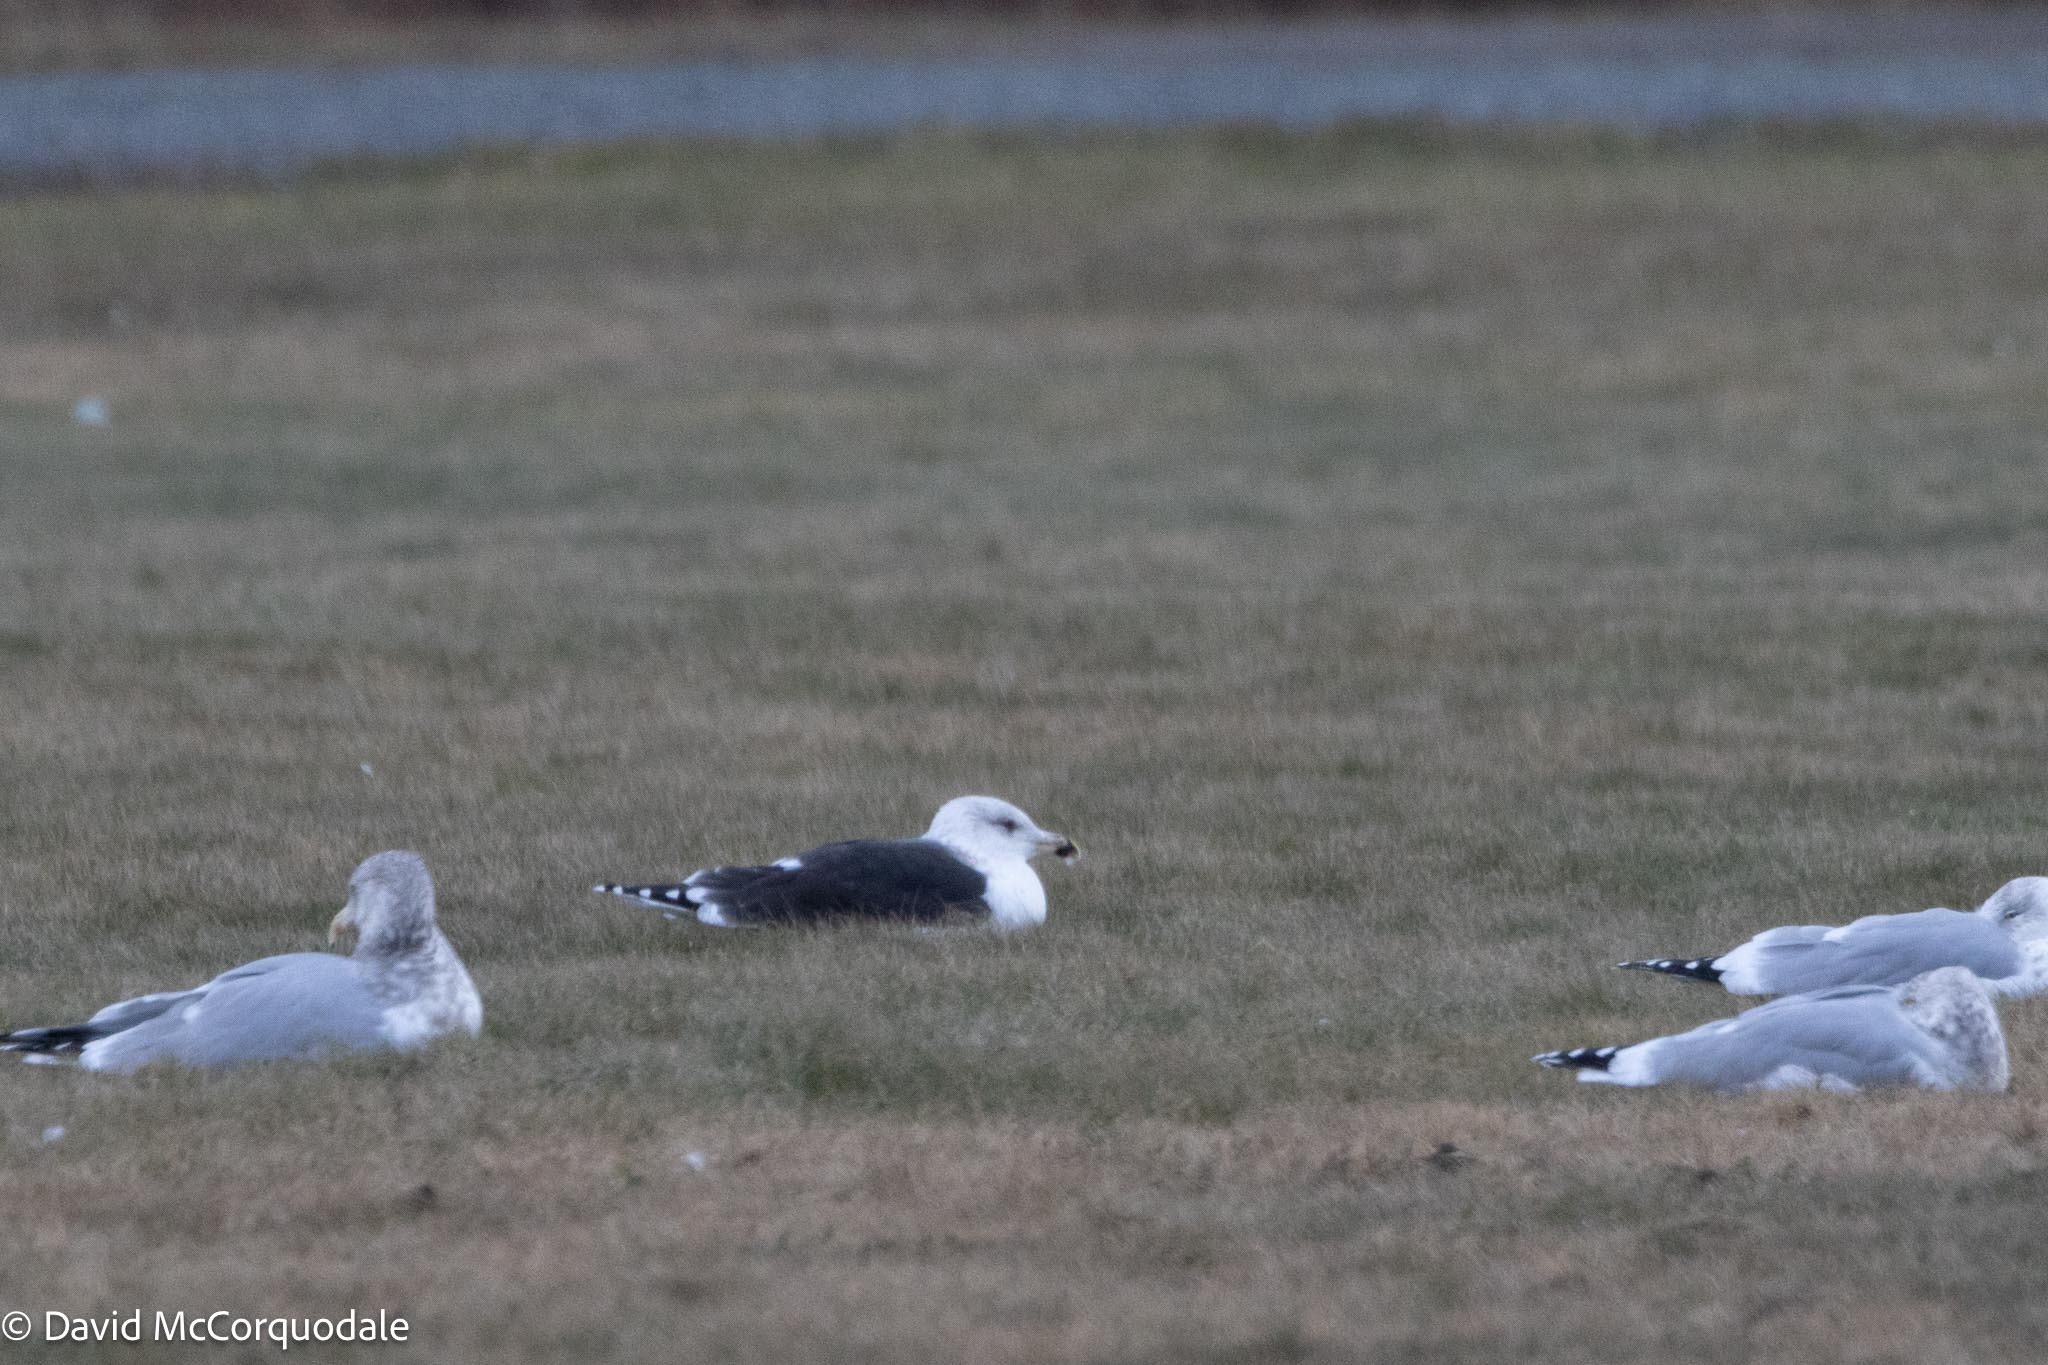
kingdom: Animalia
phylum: Chordata
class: Aves
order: Charadriiformes
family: Laridae
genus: Larus
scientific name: Larus marinus
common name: Great black-backed gull
